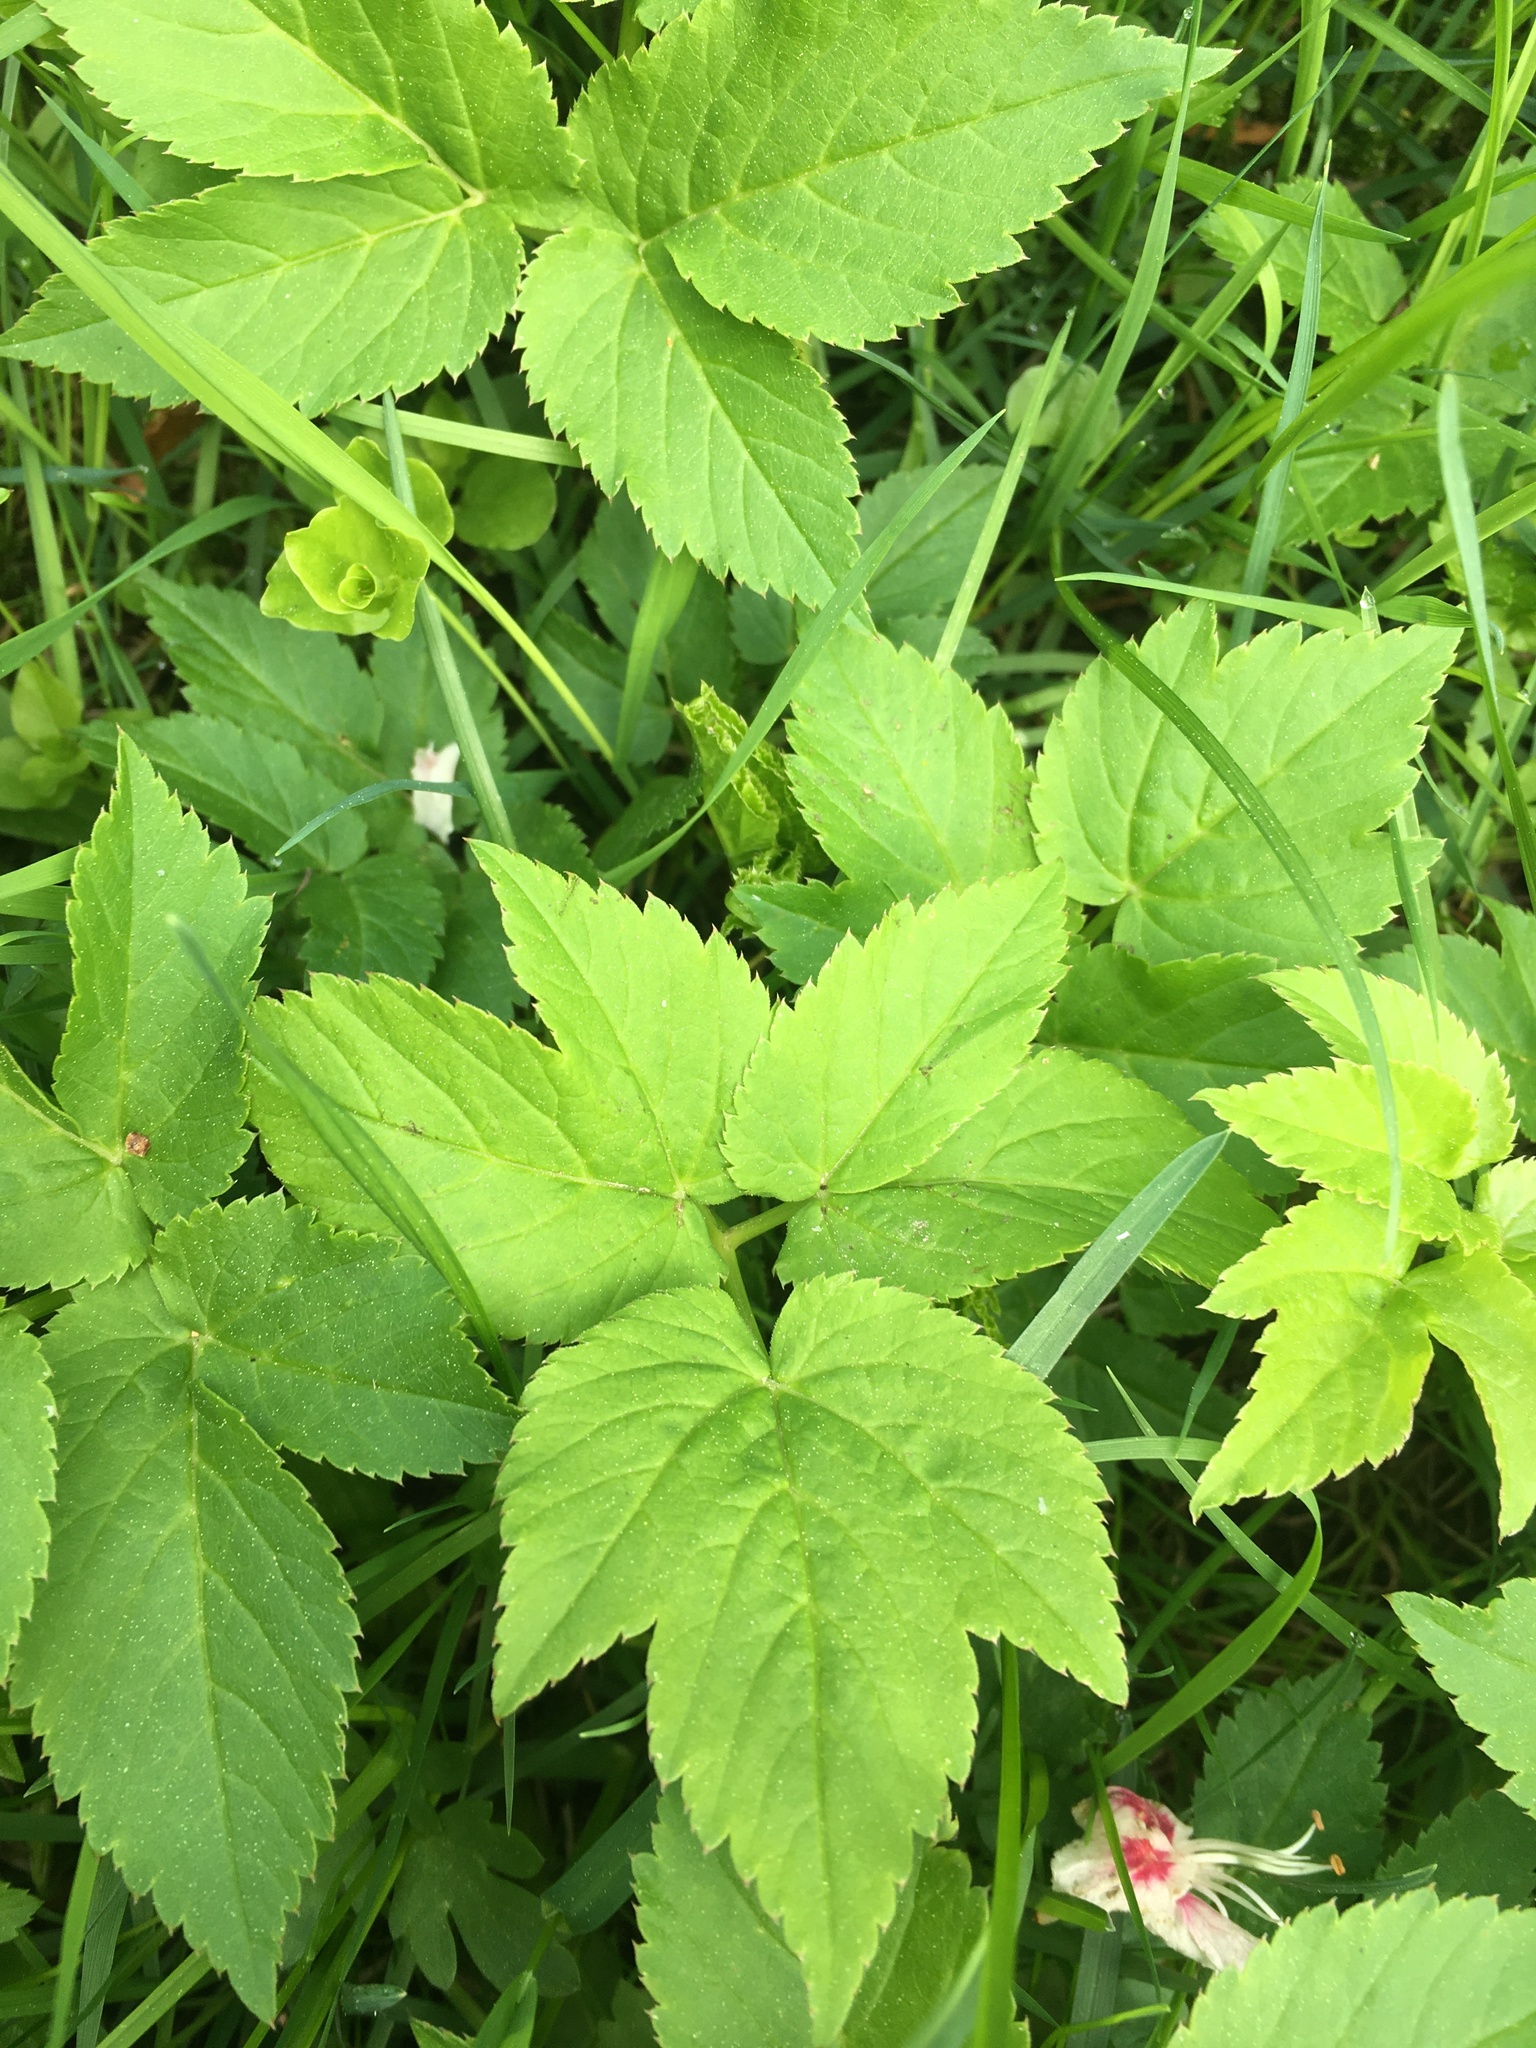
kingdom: Plantae
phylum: Tracheophyta
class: Magnoliopsida
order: Apiales
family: Apiaceae
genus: Aegopodium
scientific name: Aegopodium podagraria
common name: Ground-elder
